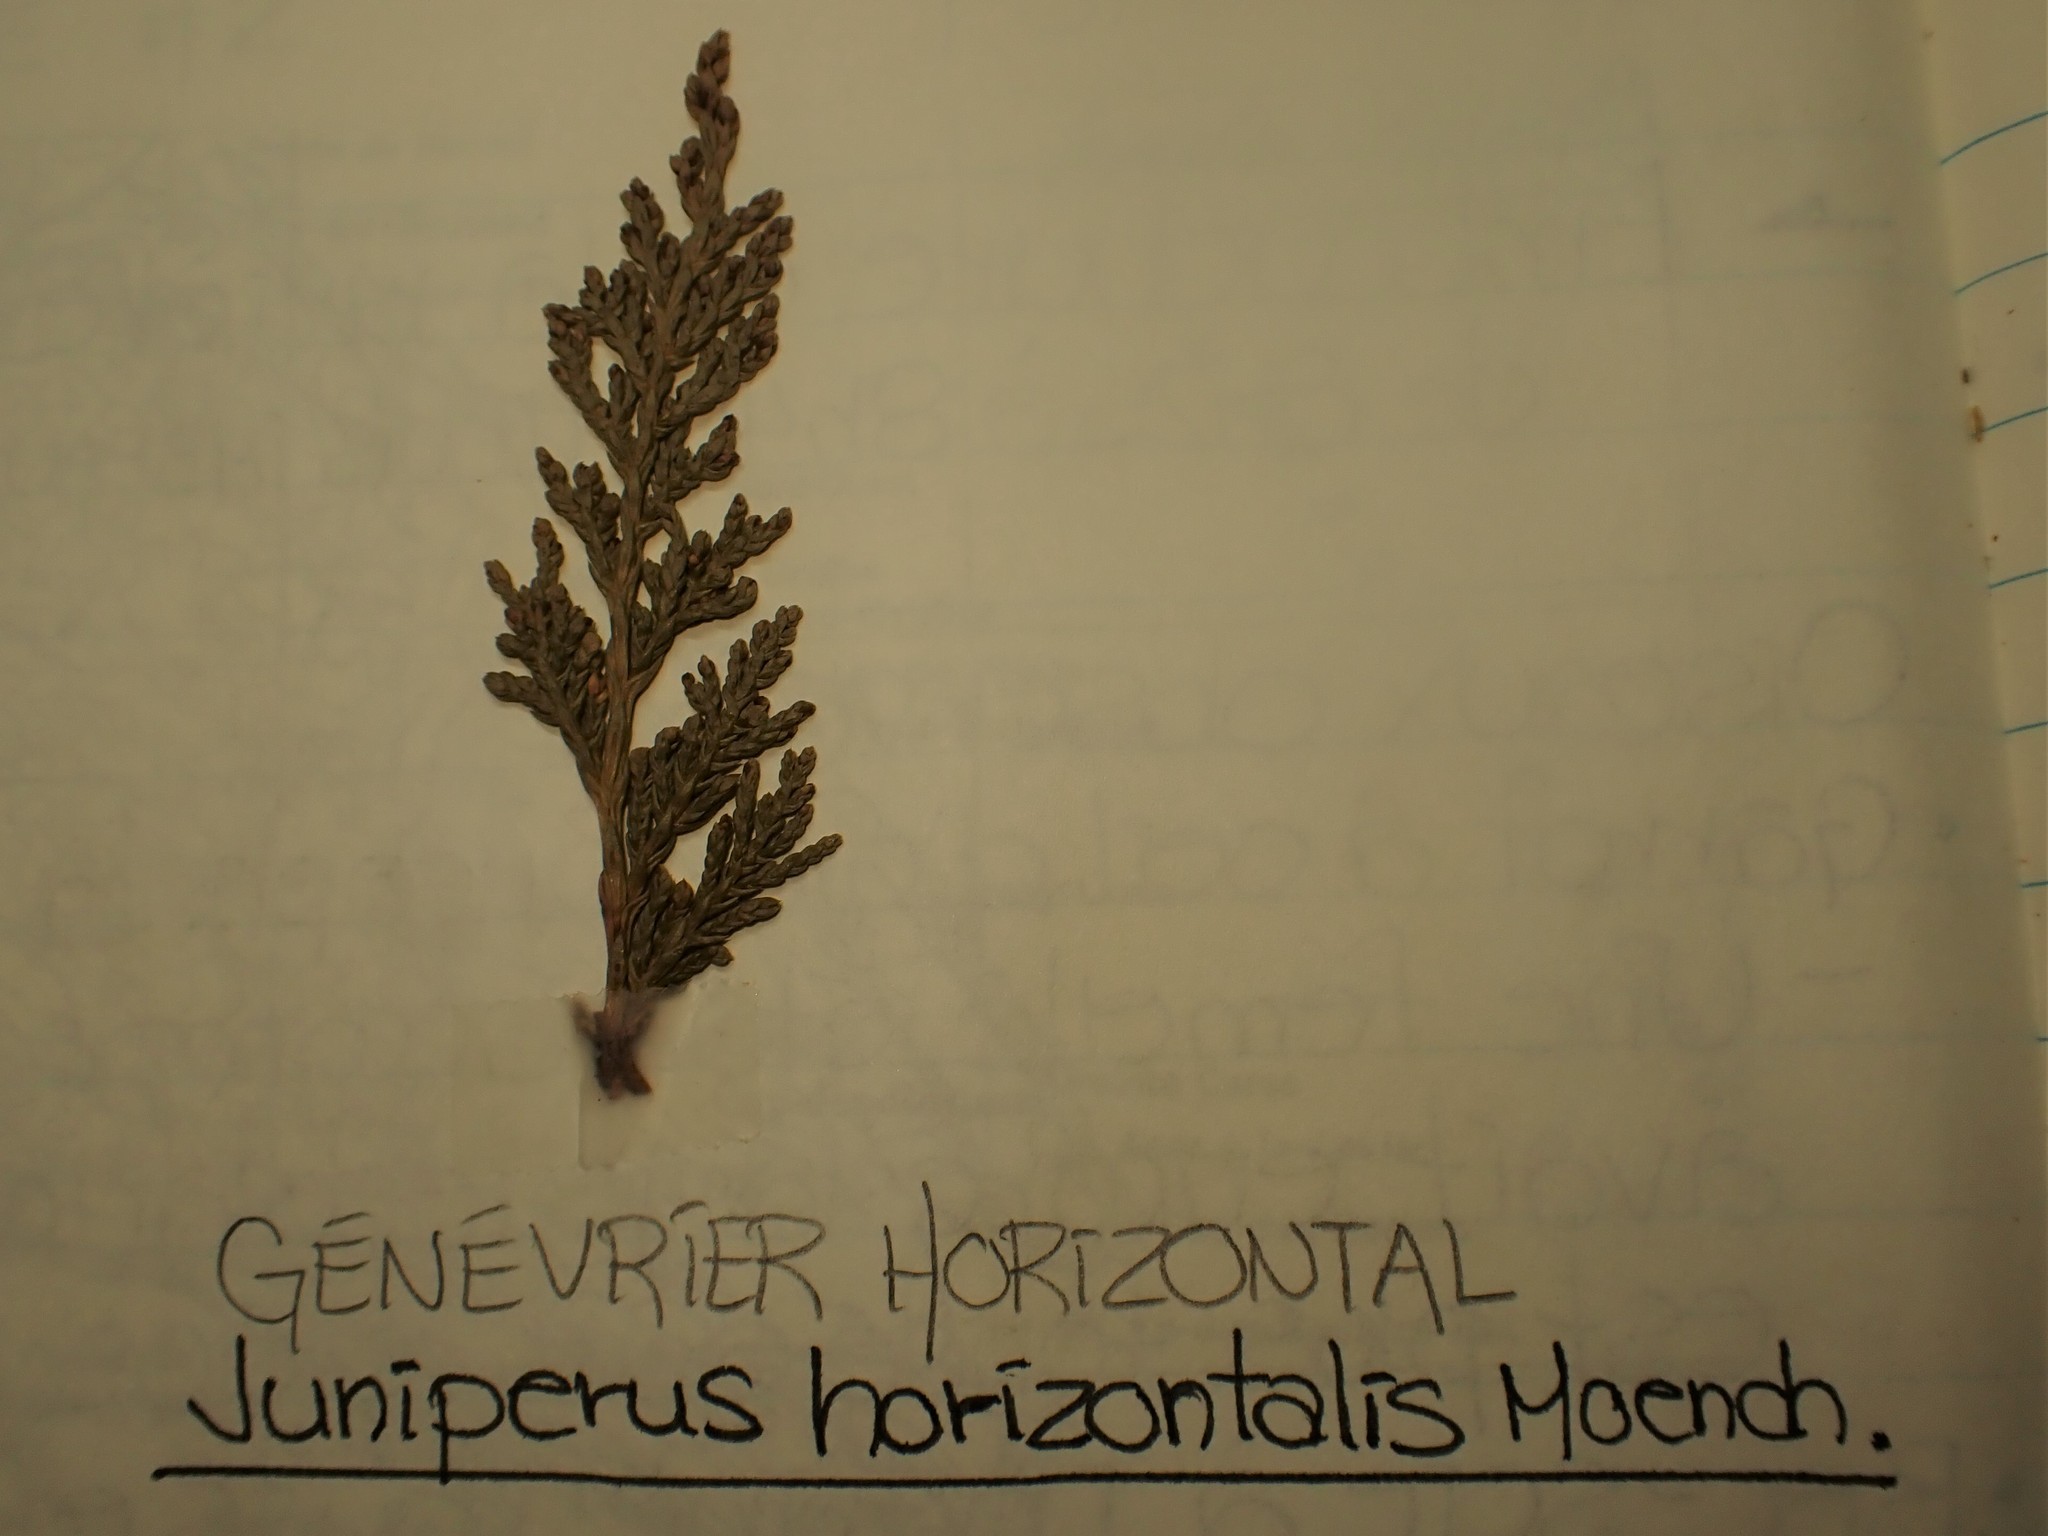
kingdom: Plantae
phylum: Tracheophyta
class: Pinopsida
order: Pinales
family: Cupressaceae
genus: Juniperus
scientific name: Juniperus horizontalis
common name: Creeping juniper
